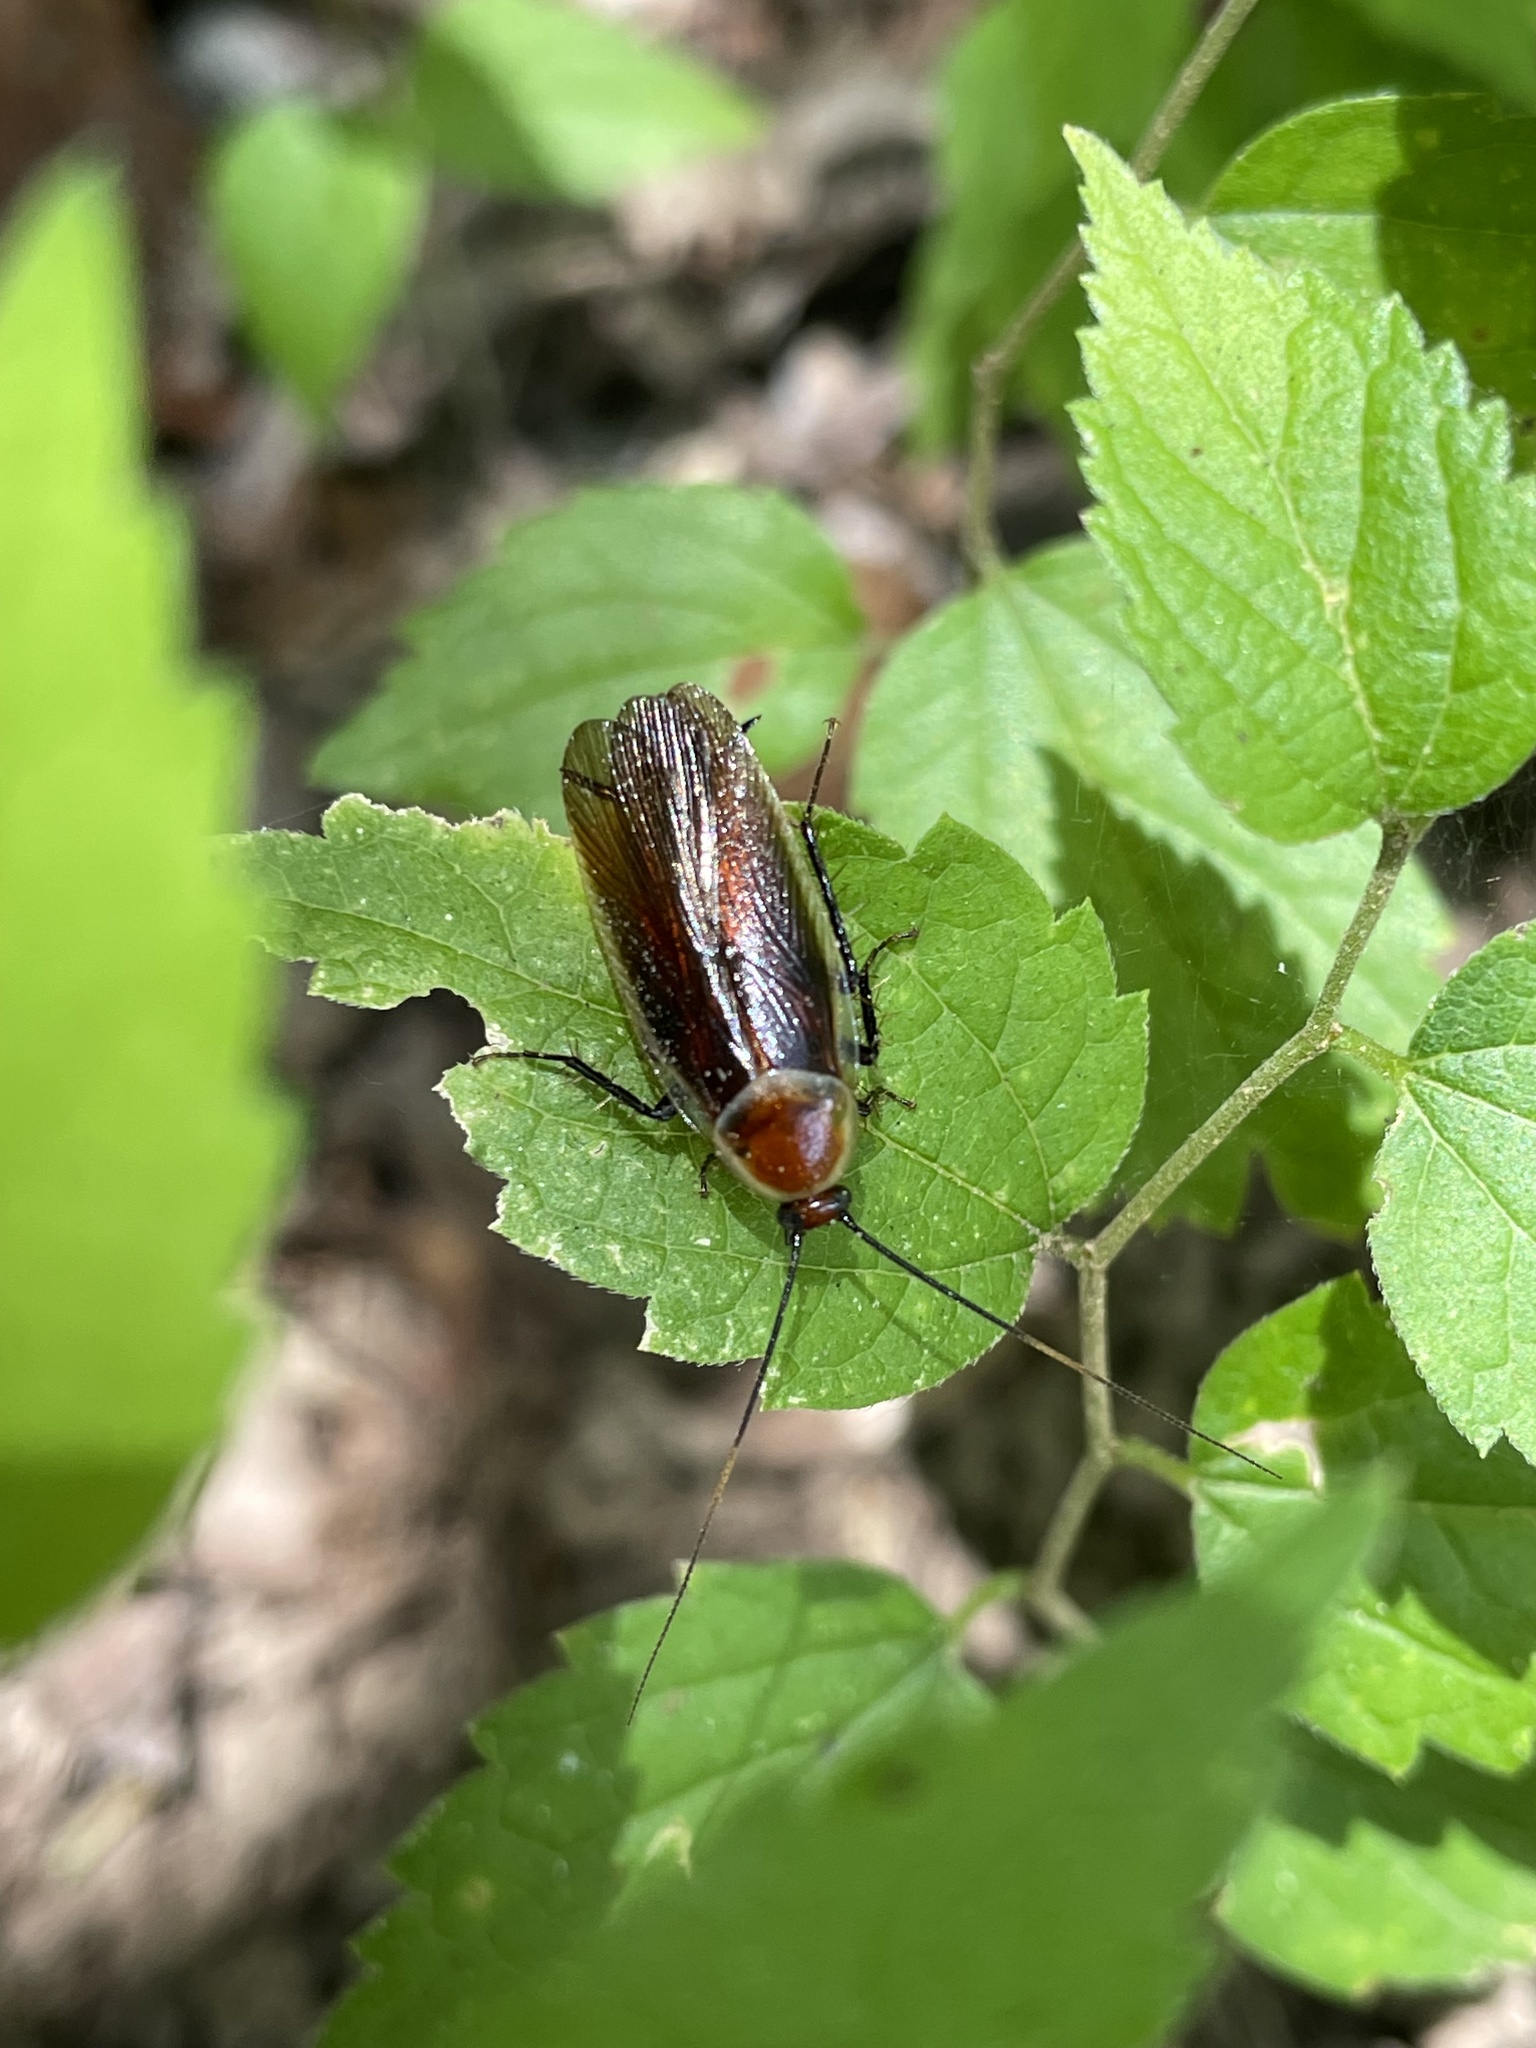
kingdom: Animalia
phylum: Arthropoda
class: Insecta
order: Blattodea
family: Ectobiidae
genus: Pseudomops
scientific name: Pseudomops septentrionalis
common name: Pale-bordered field cockroach
